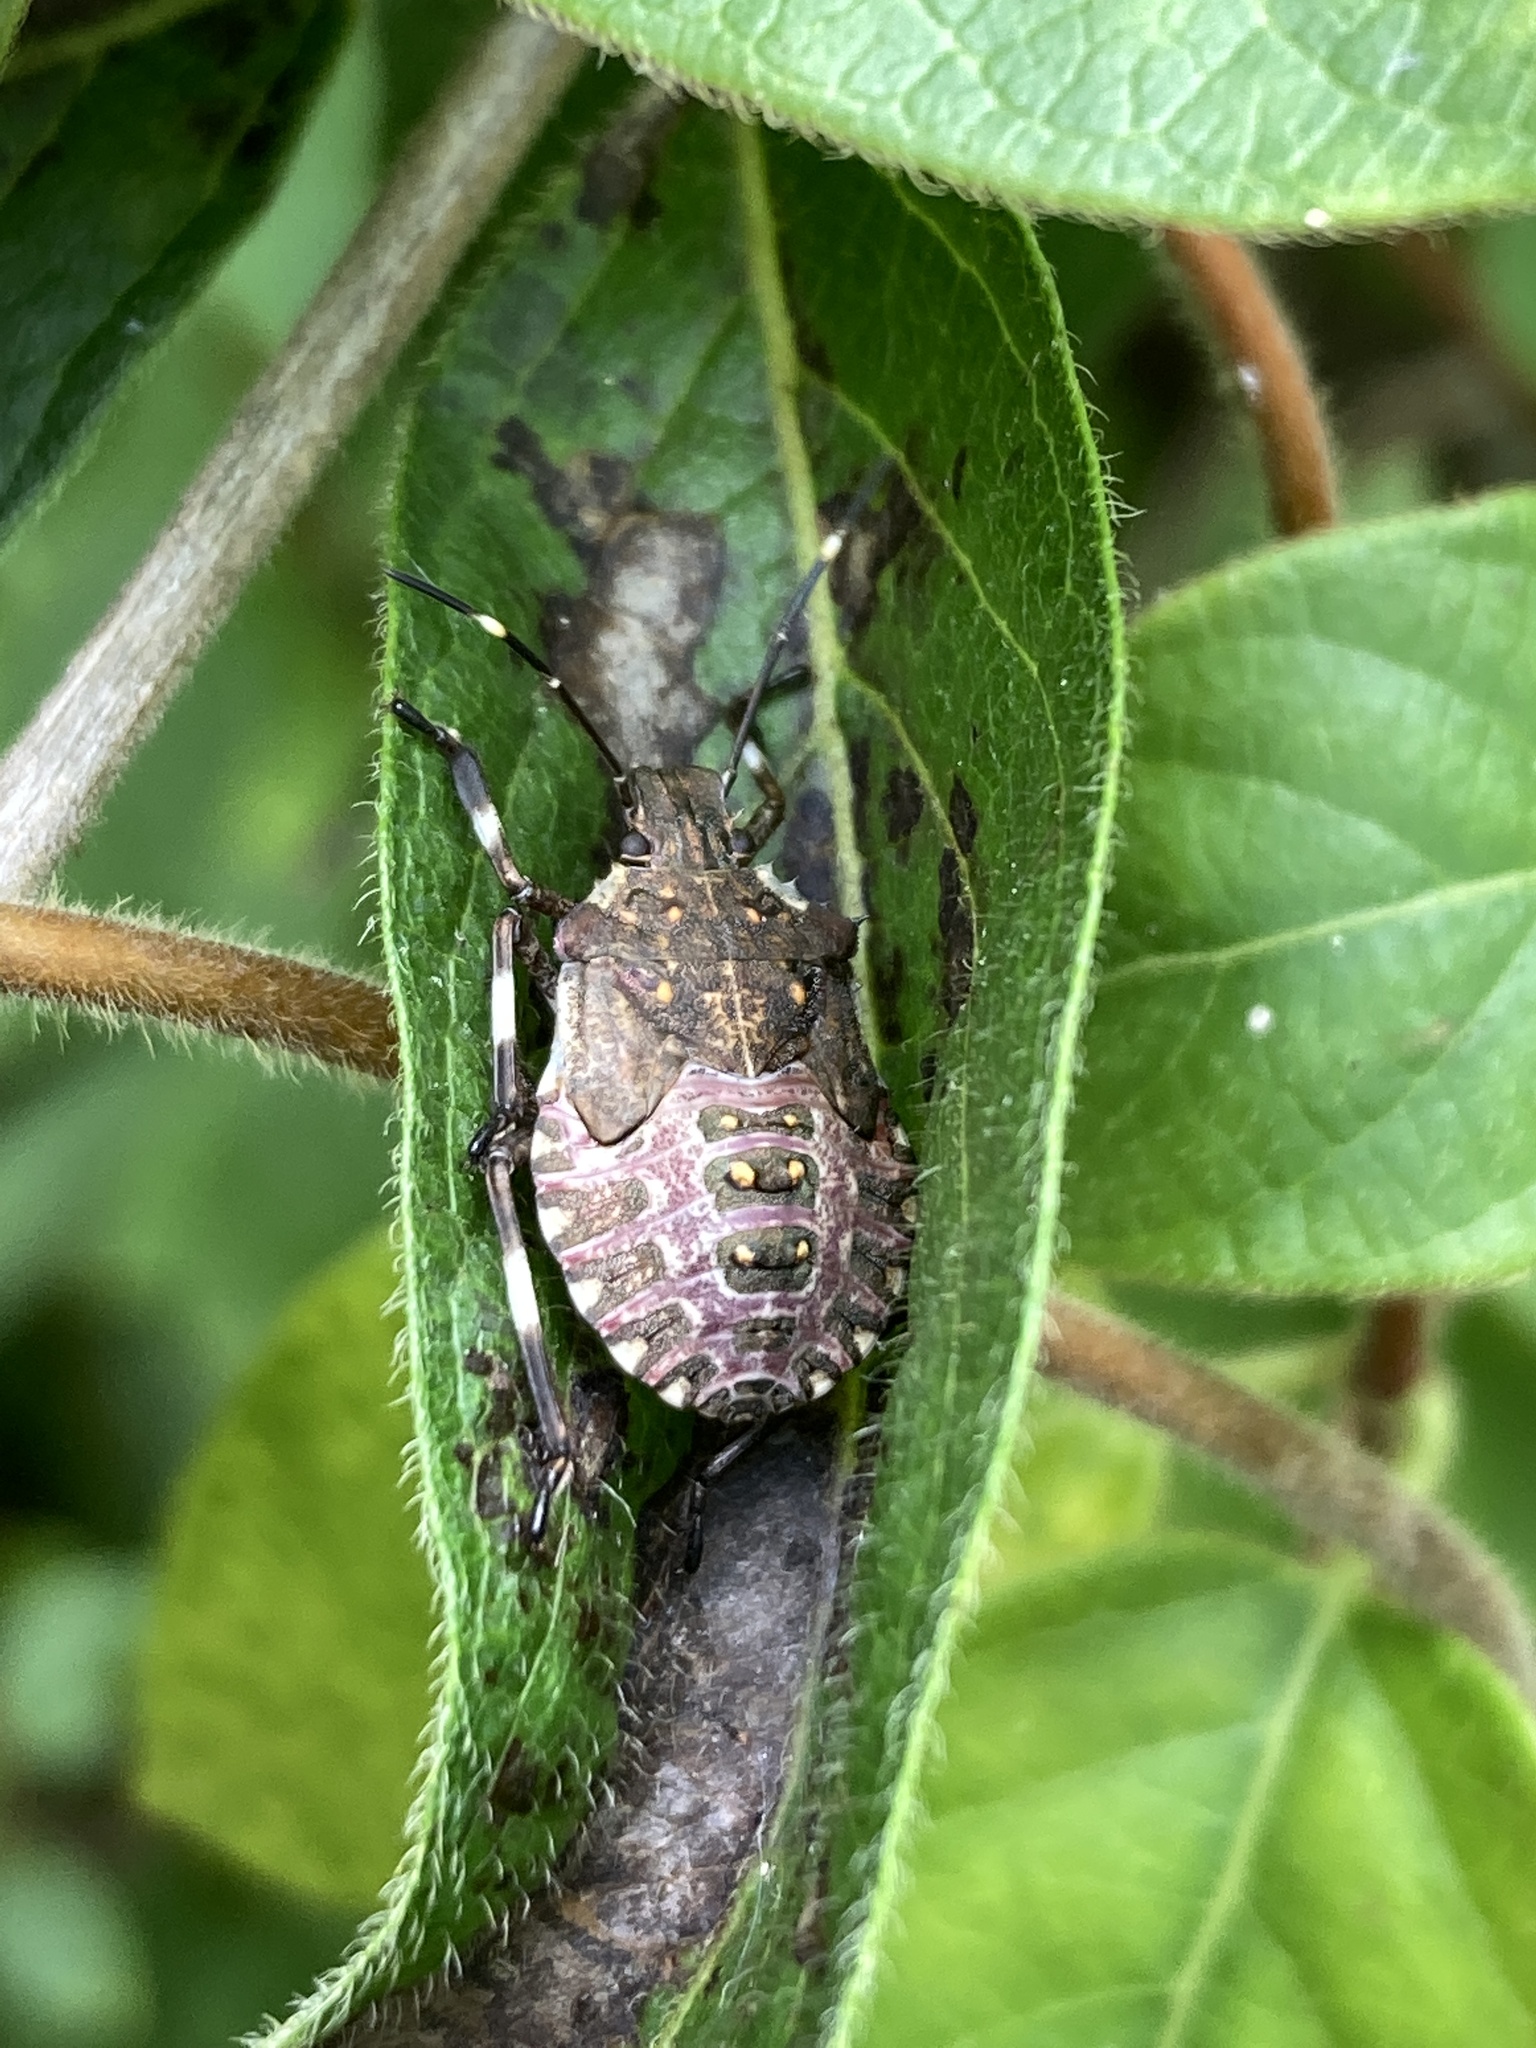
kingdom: Animalia
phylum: Arthropoda
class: Insecta
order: Hemiptera
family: Pentatomidae
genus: Halyomorpha
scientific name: Halyomorpha halys
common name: Brown marmorated stink bug
